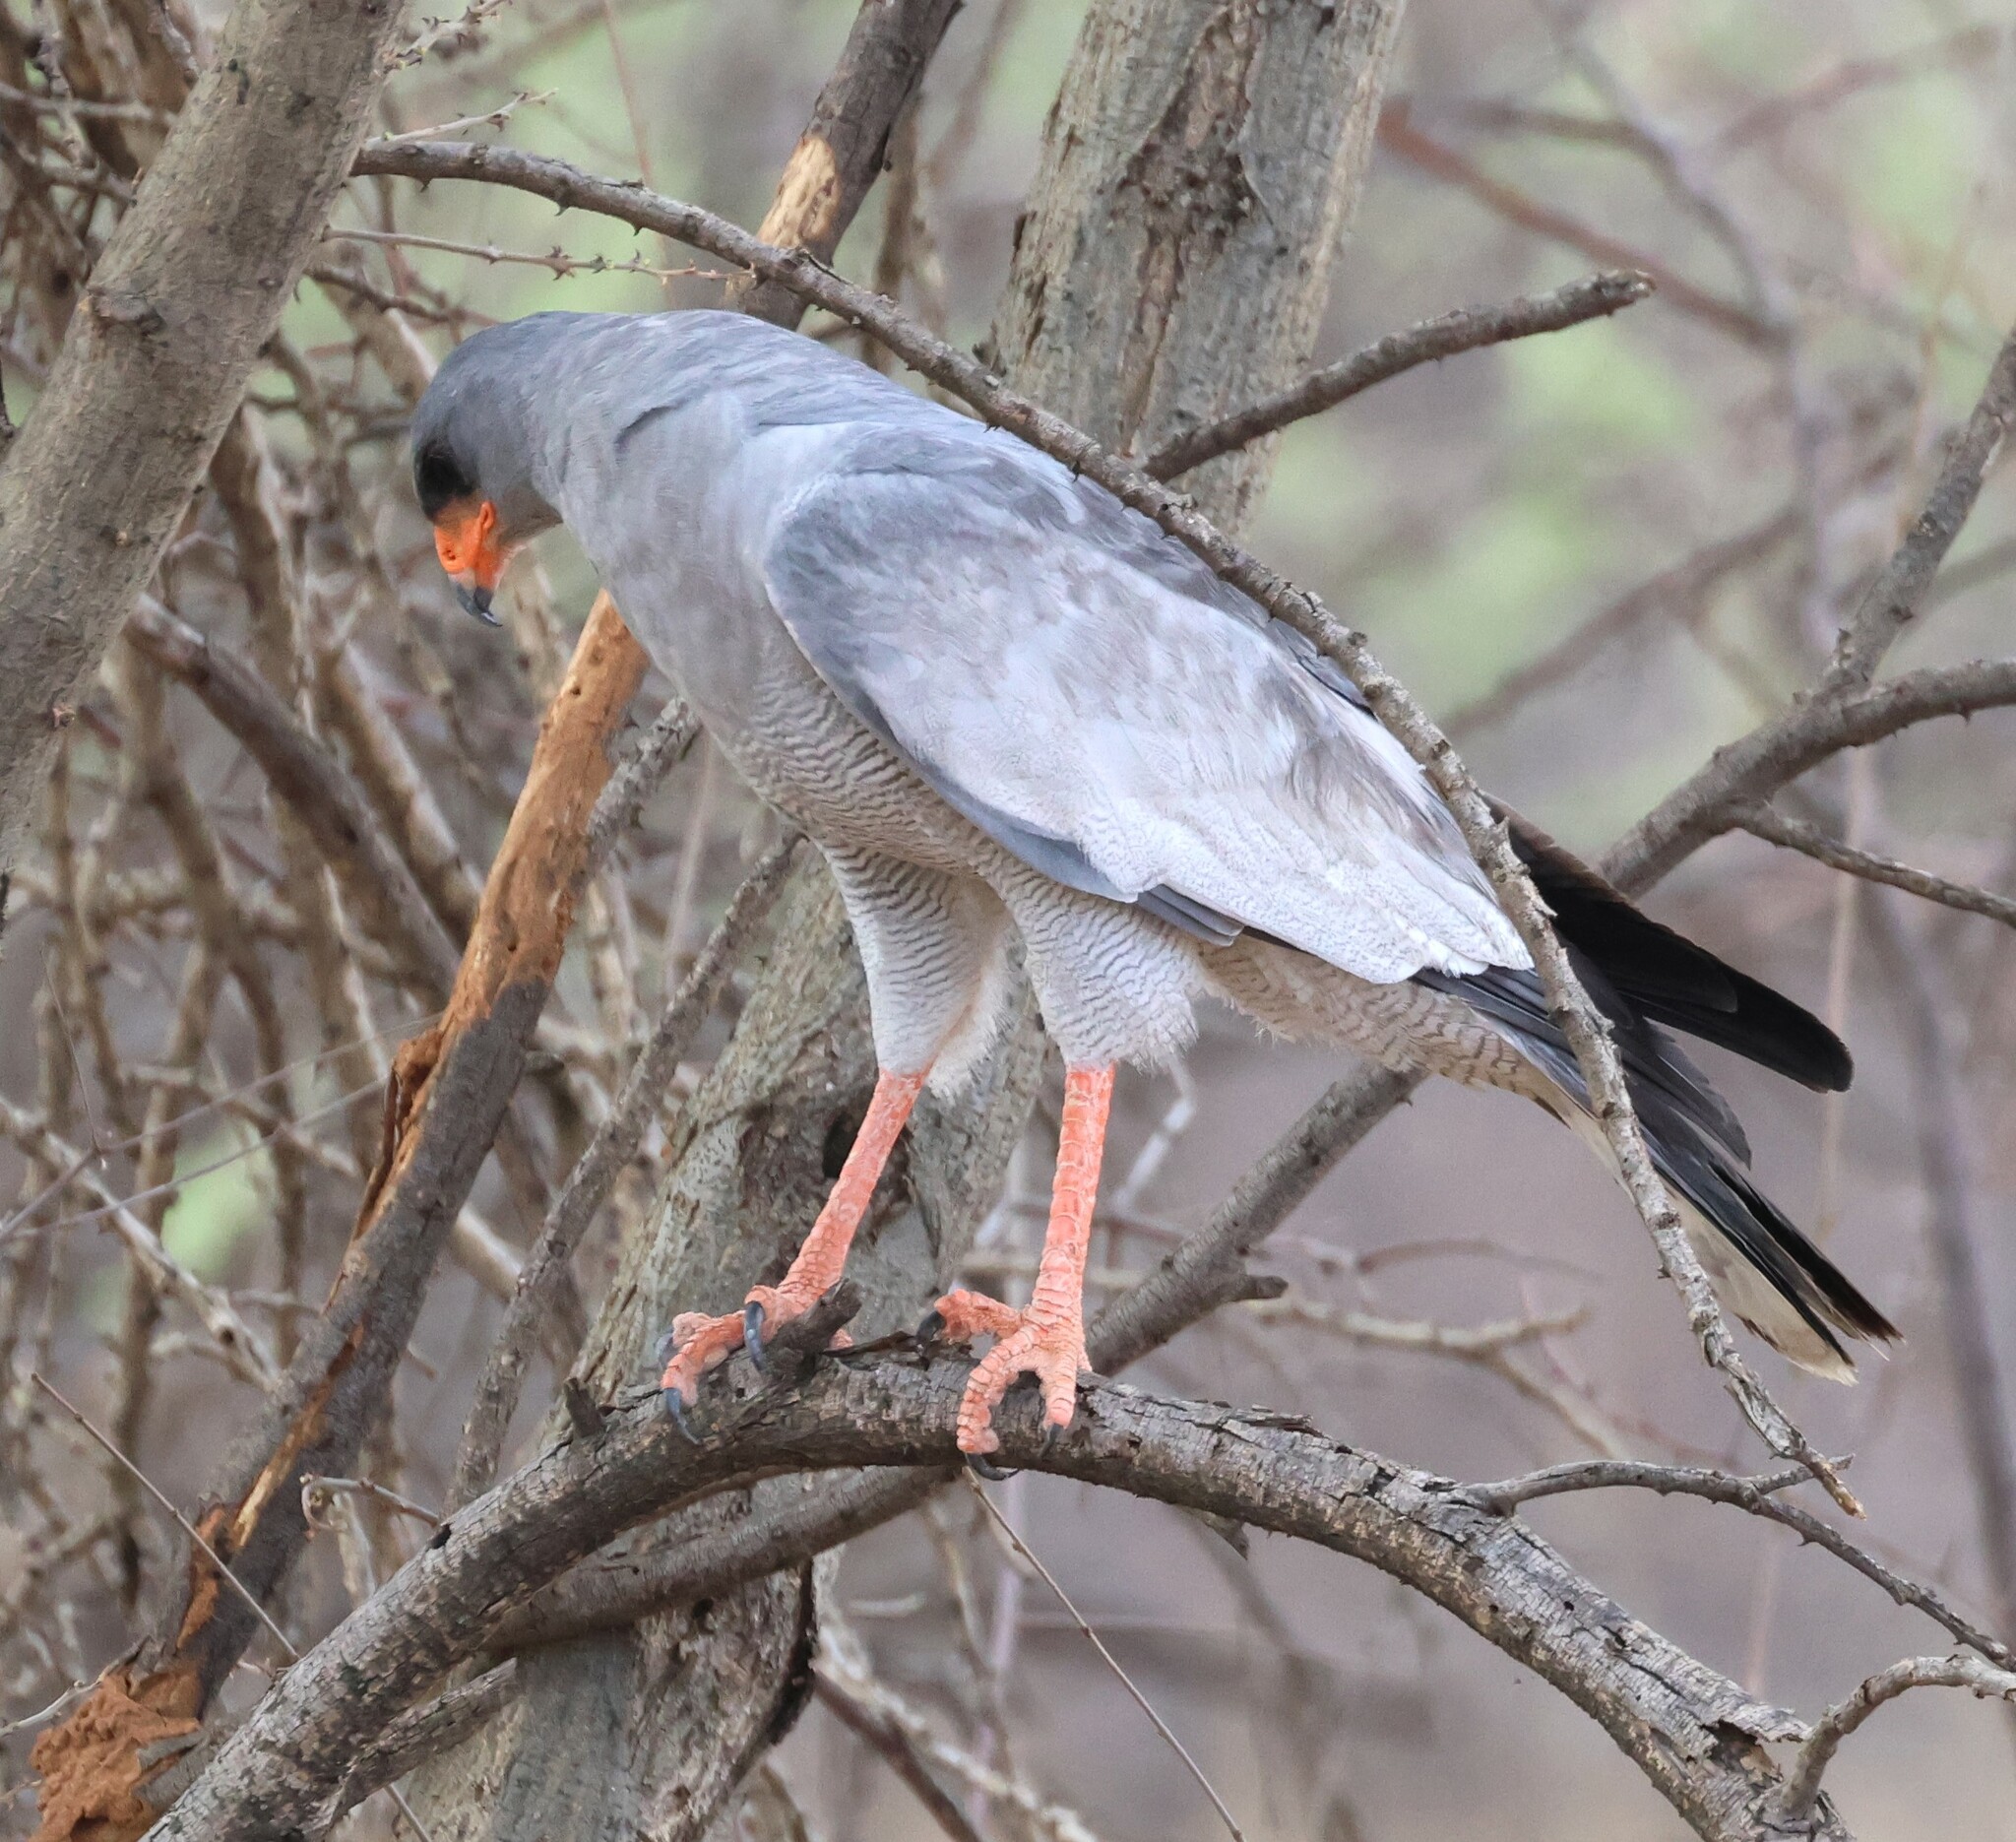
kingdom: Animalia
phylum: Chordata
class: Aves
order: Accipitriformes
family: Accipitridae
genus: Melierax
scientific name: Melierax canorus
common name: Pale chanting-goshawk
